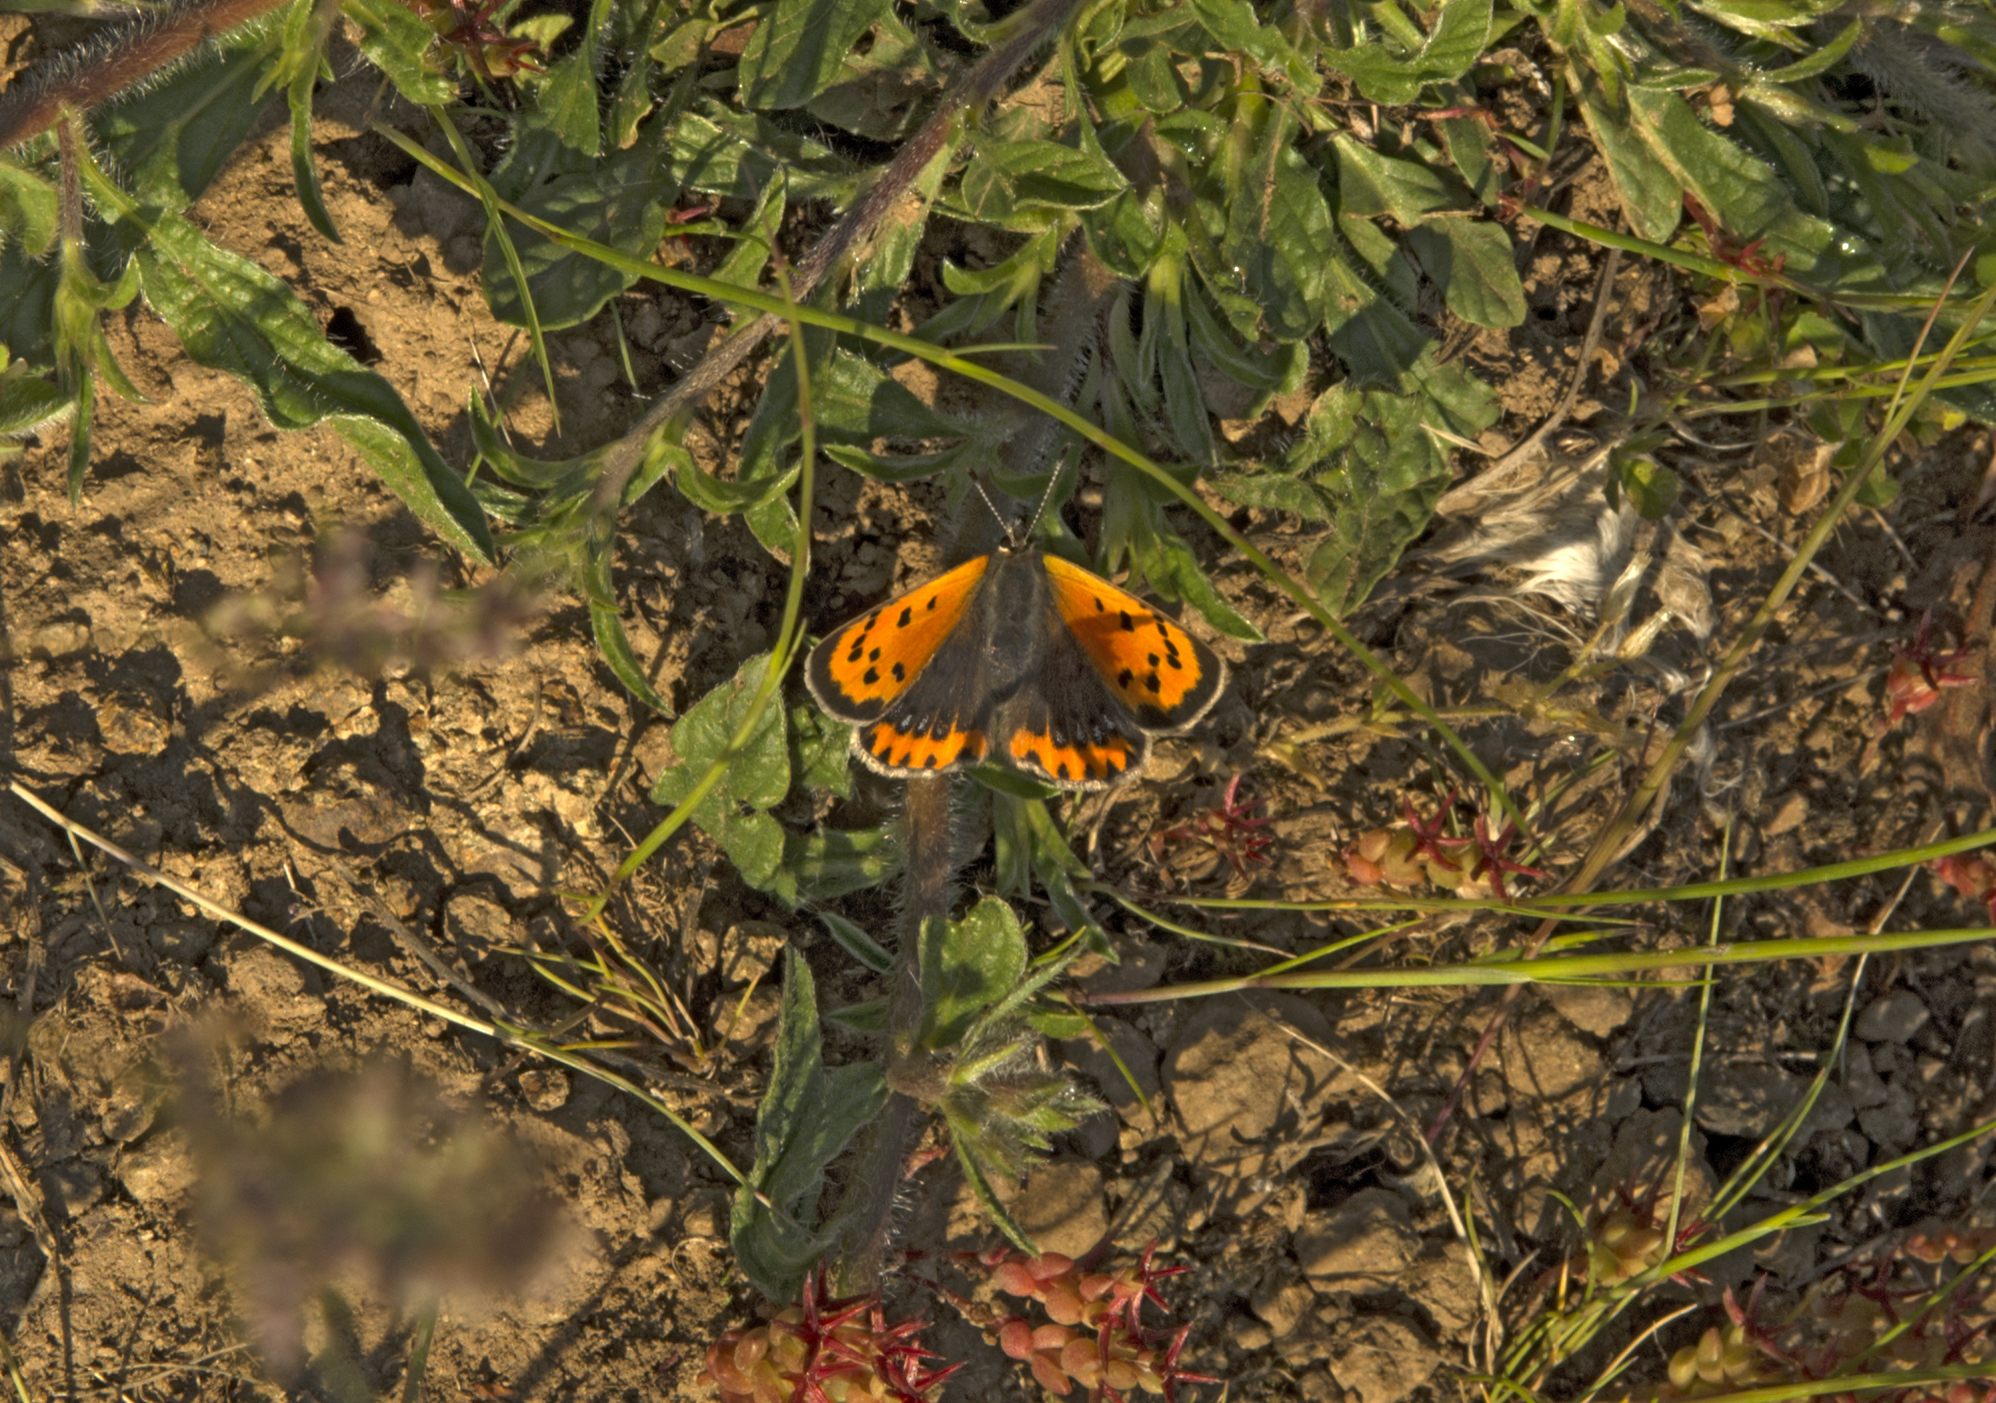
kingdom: Animalia
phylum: Arthropoda
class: Insecta
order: Lepidoptera
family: Lycaenidae
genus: Lycaena
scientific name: Lycaena phlaeas
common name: Small copper
